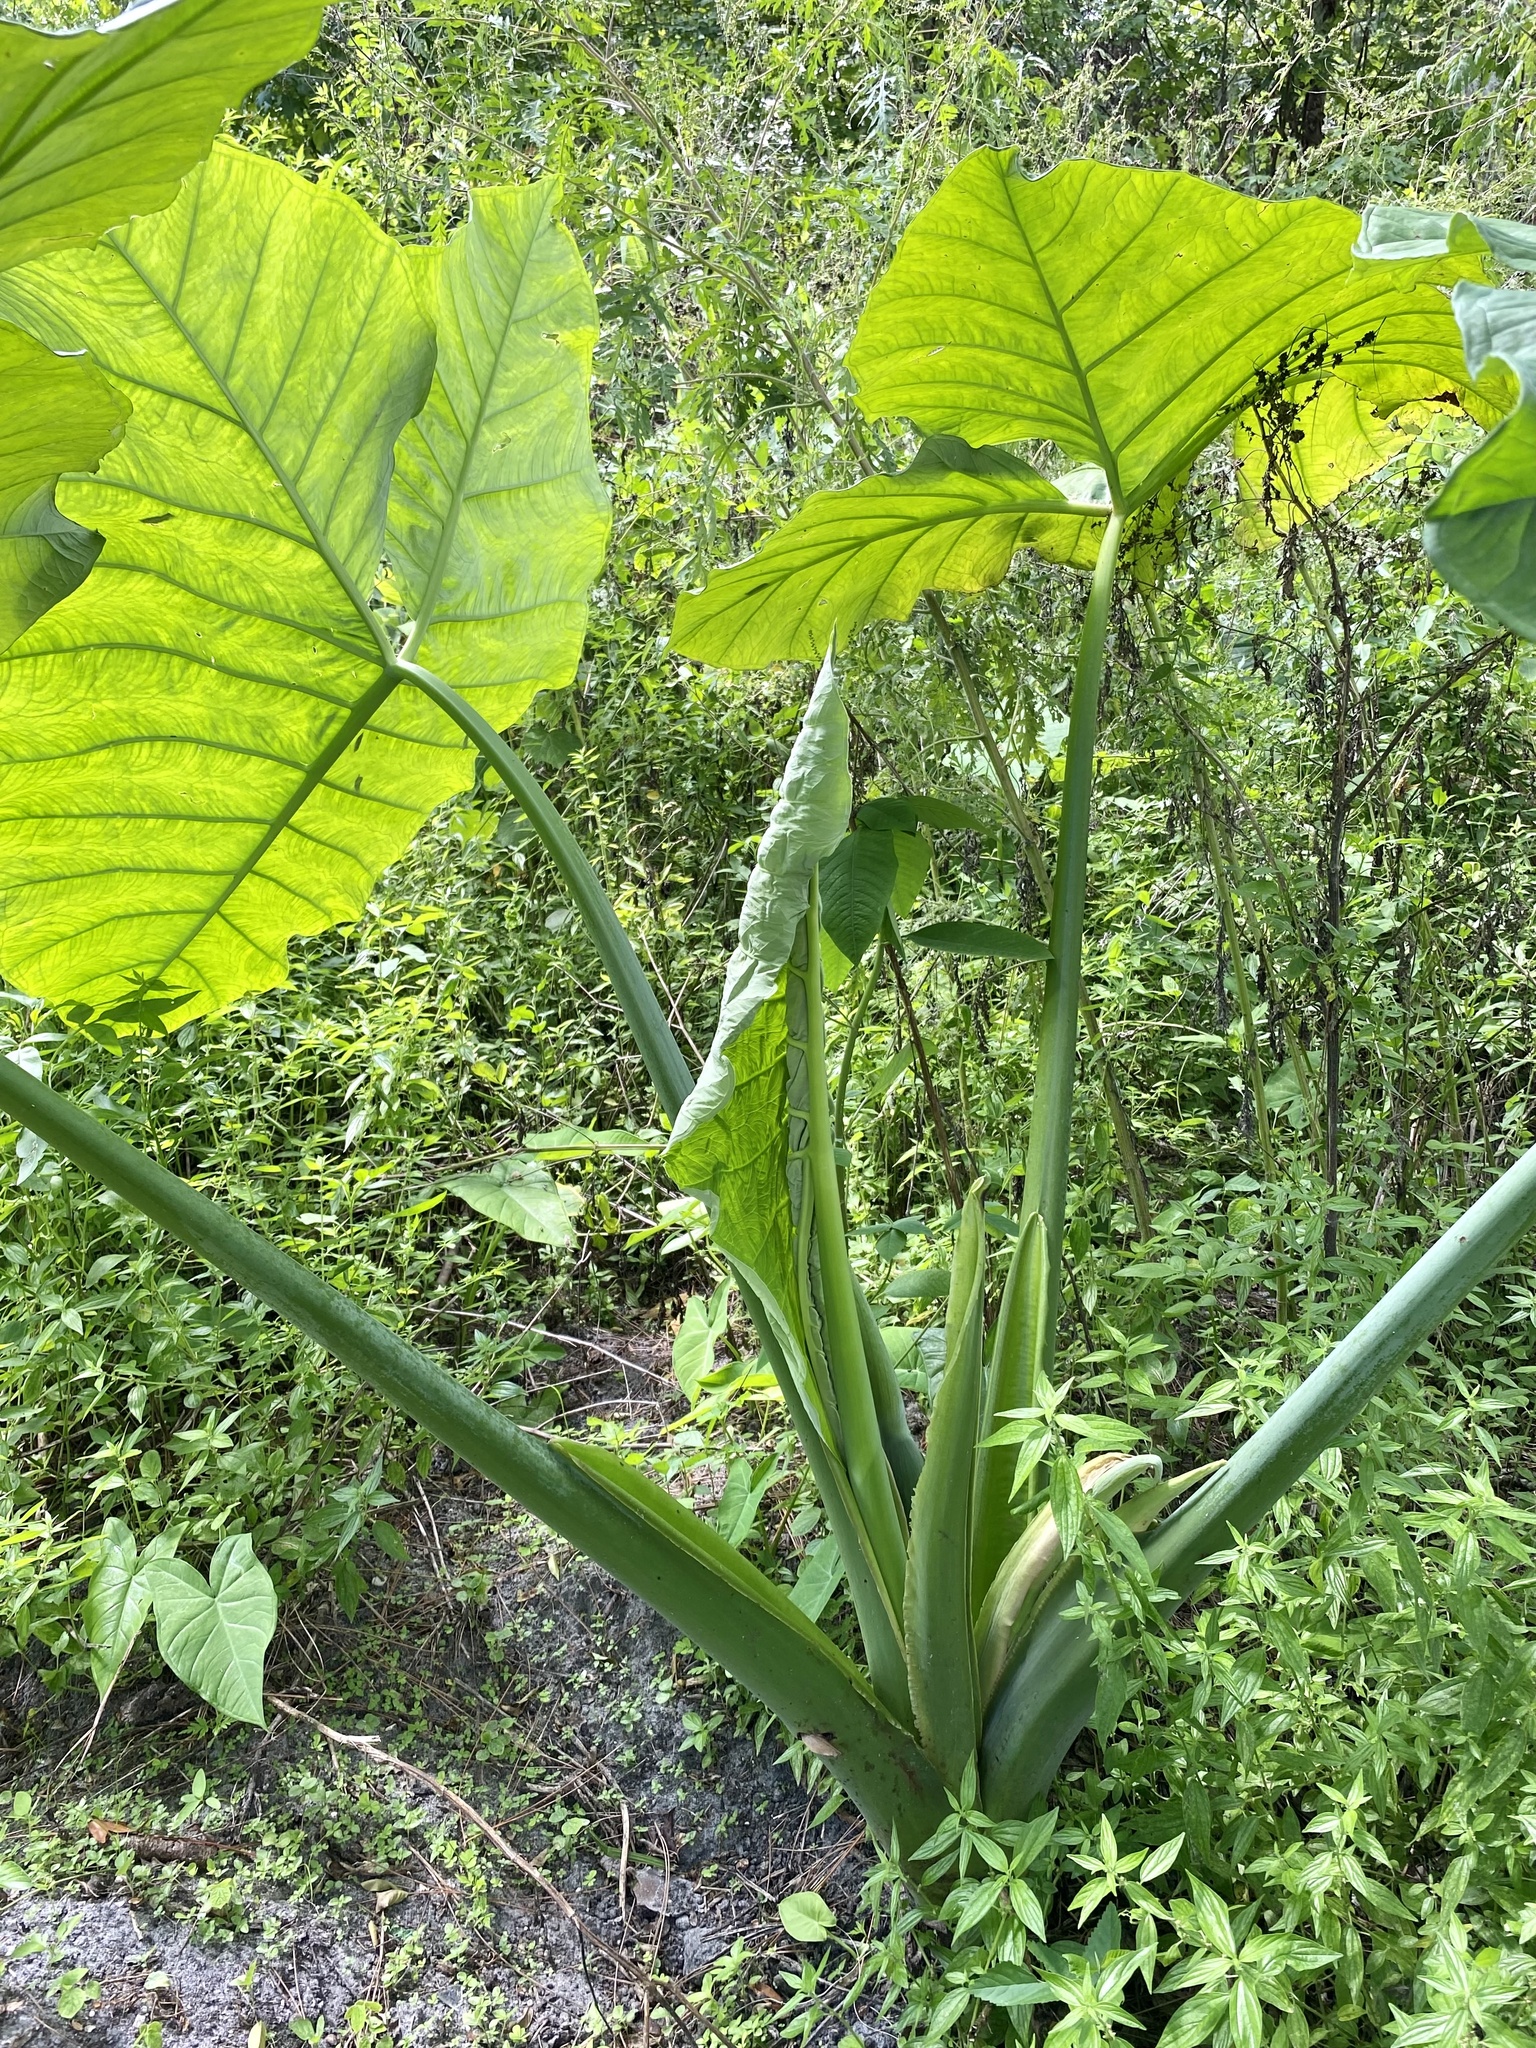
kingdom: Plantae
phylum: Tracheophyta
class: Liliopsida
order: Alismatales
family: Araceae
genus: Xanthosoma
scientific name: Xanthosoma robustum
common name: Capote
